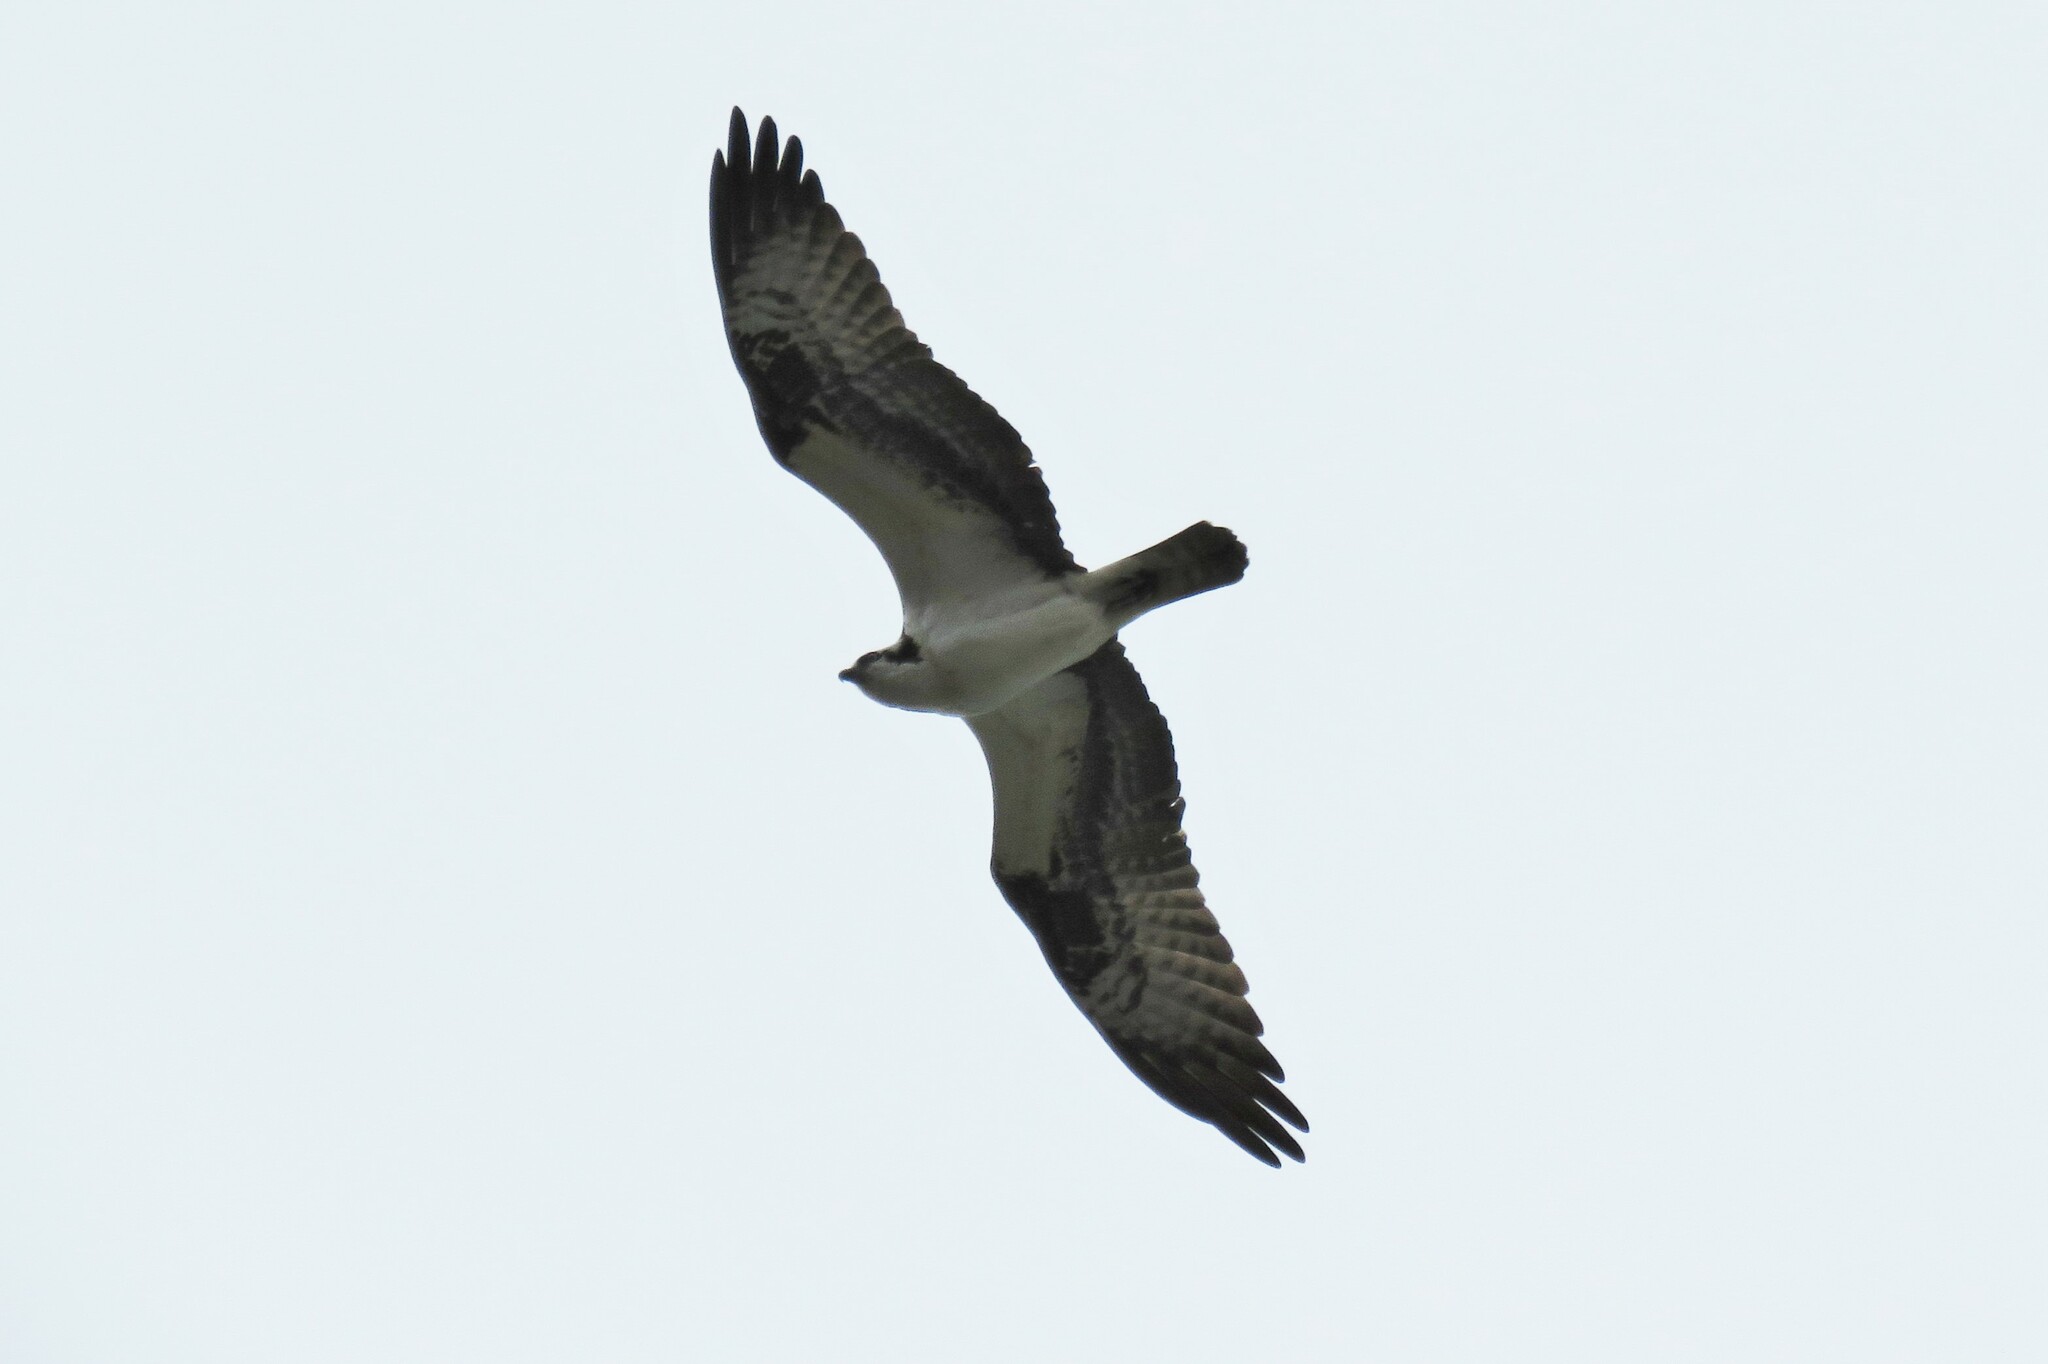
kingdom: Animalia
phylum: Chordata
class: Aves
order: Accipitriformes
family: Pandionidae
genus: Pandion
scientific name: Pandion haliaetus
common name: Osprey
